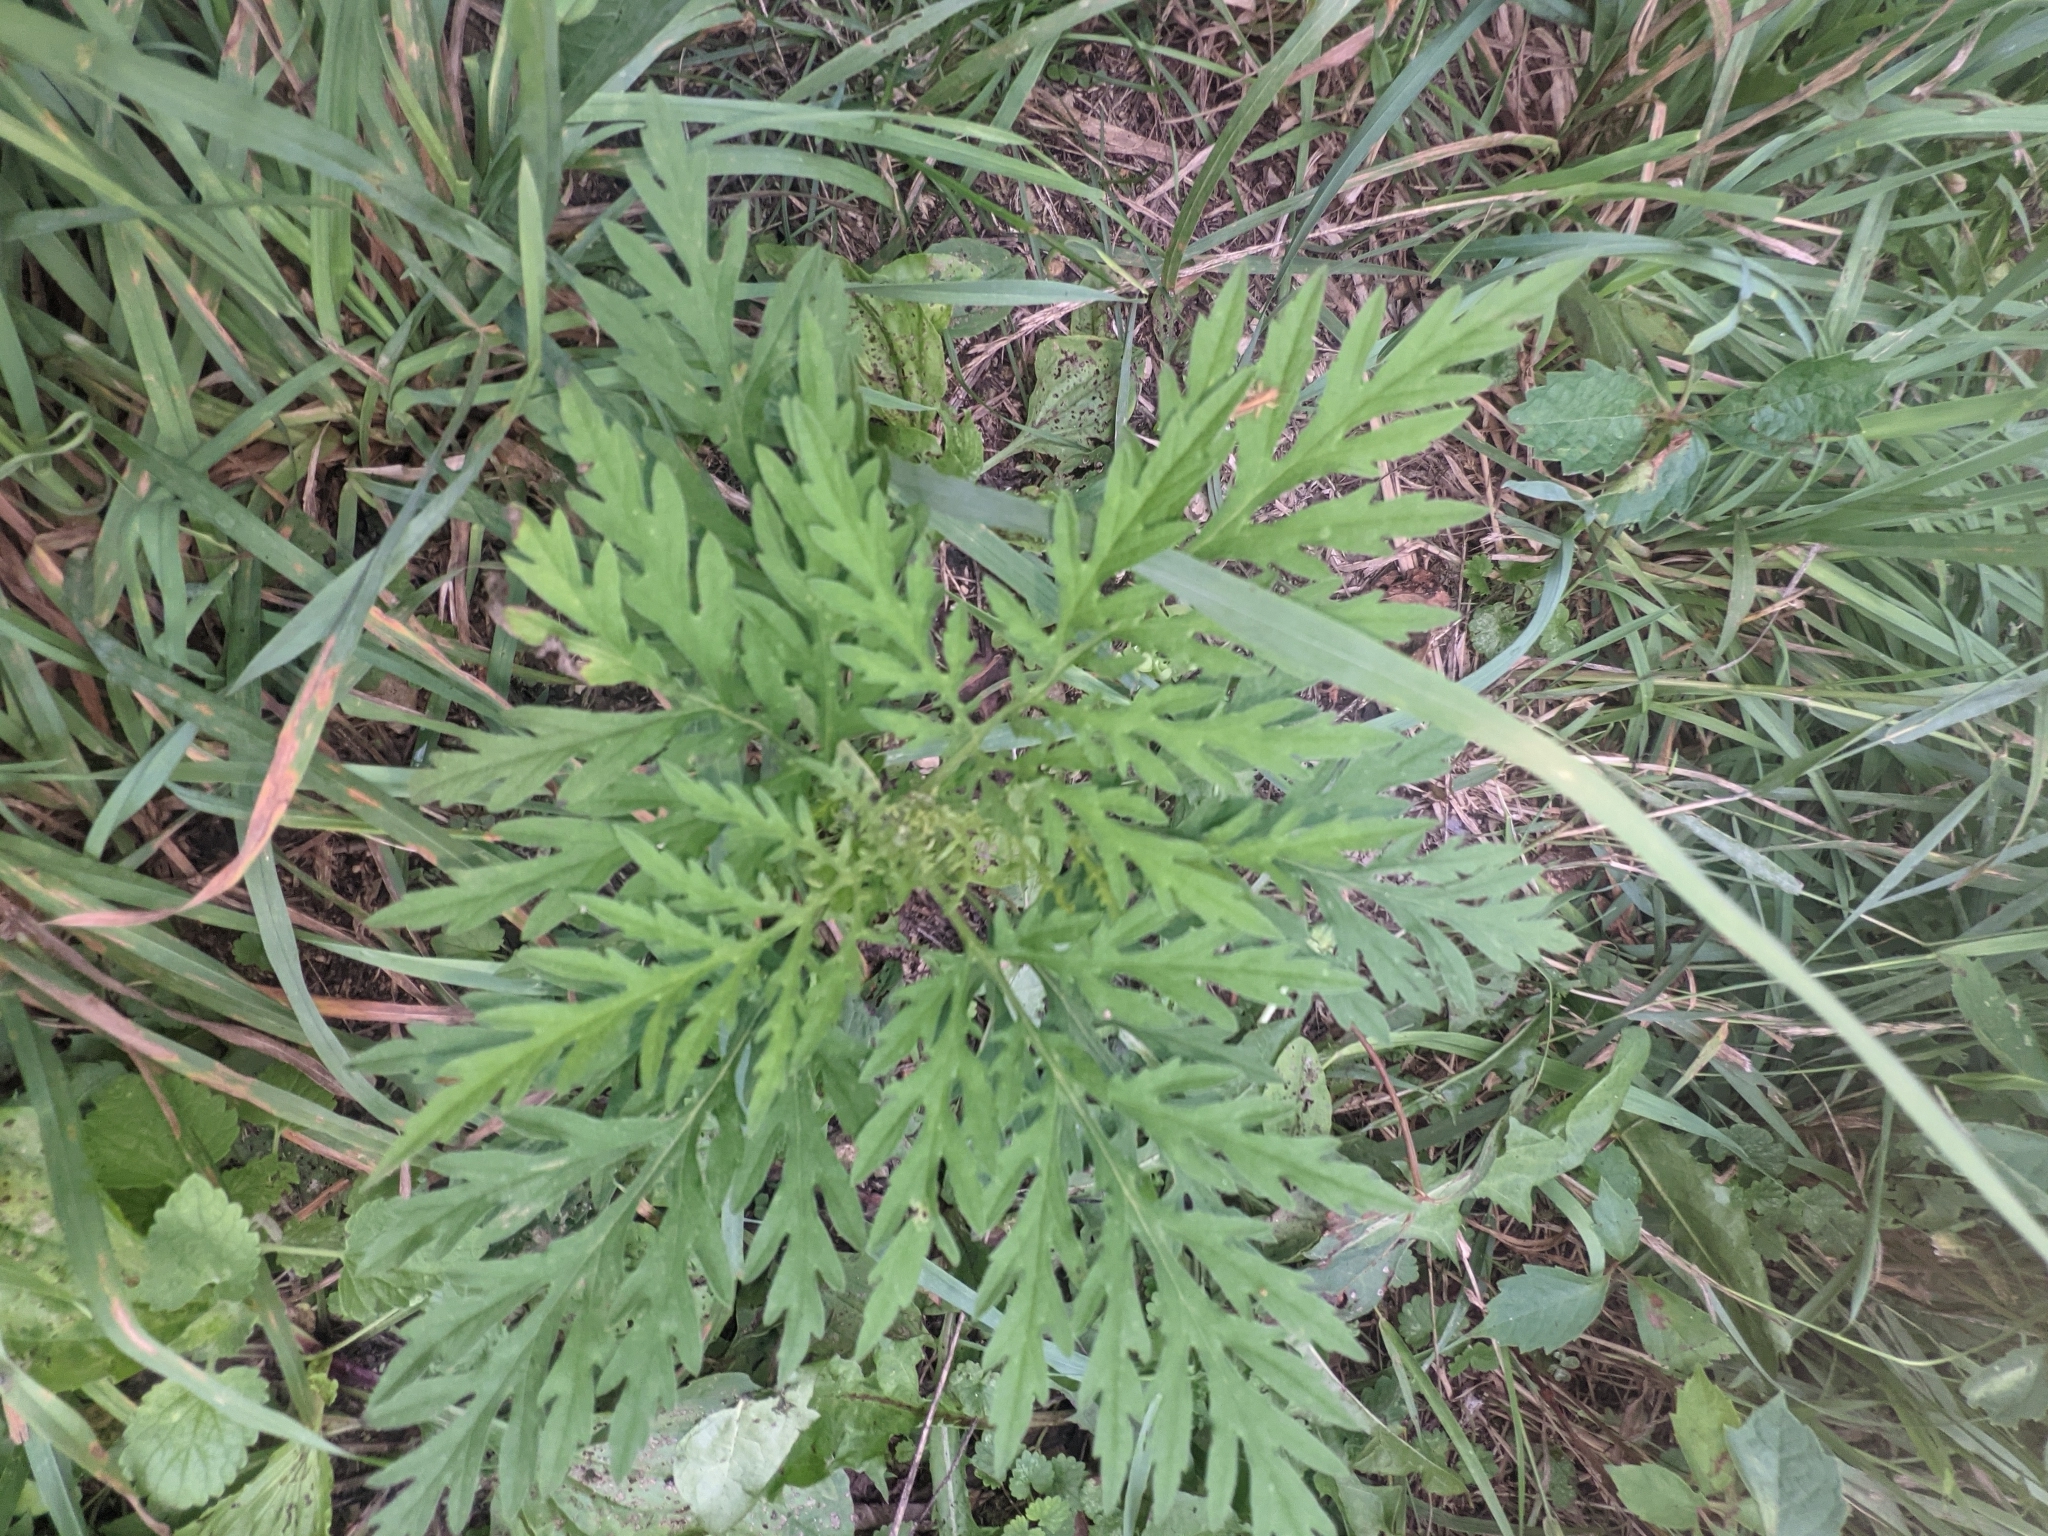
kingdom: Plantae
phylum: Tracheophyta
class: Magnoliopsida
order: Asterales
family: Asteraceae
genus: Ambrosia
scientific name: Ambrosia artemisiifolia
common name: Annual ragweed
